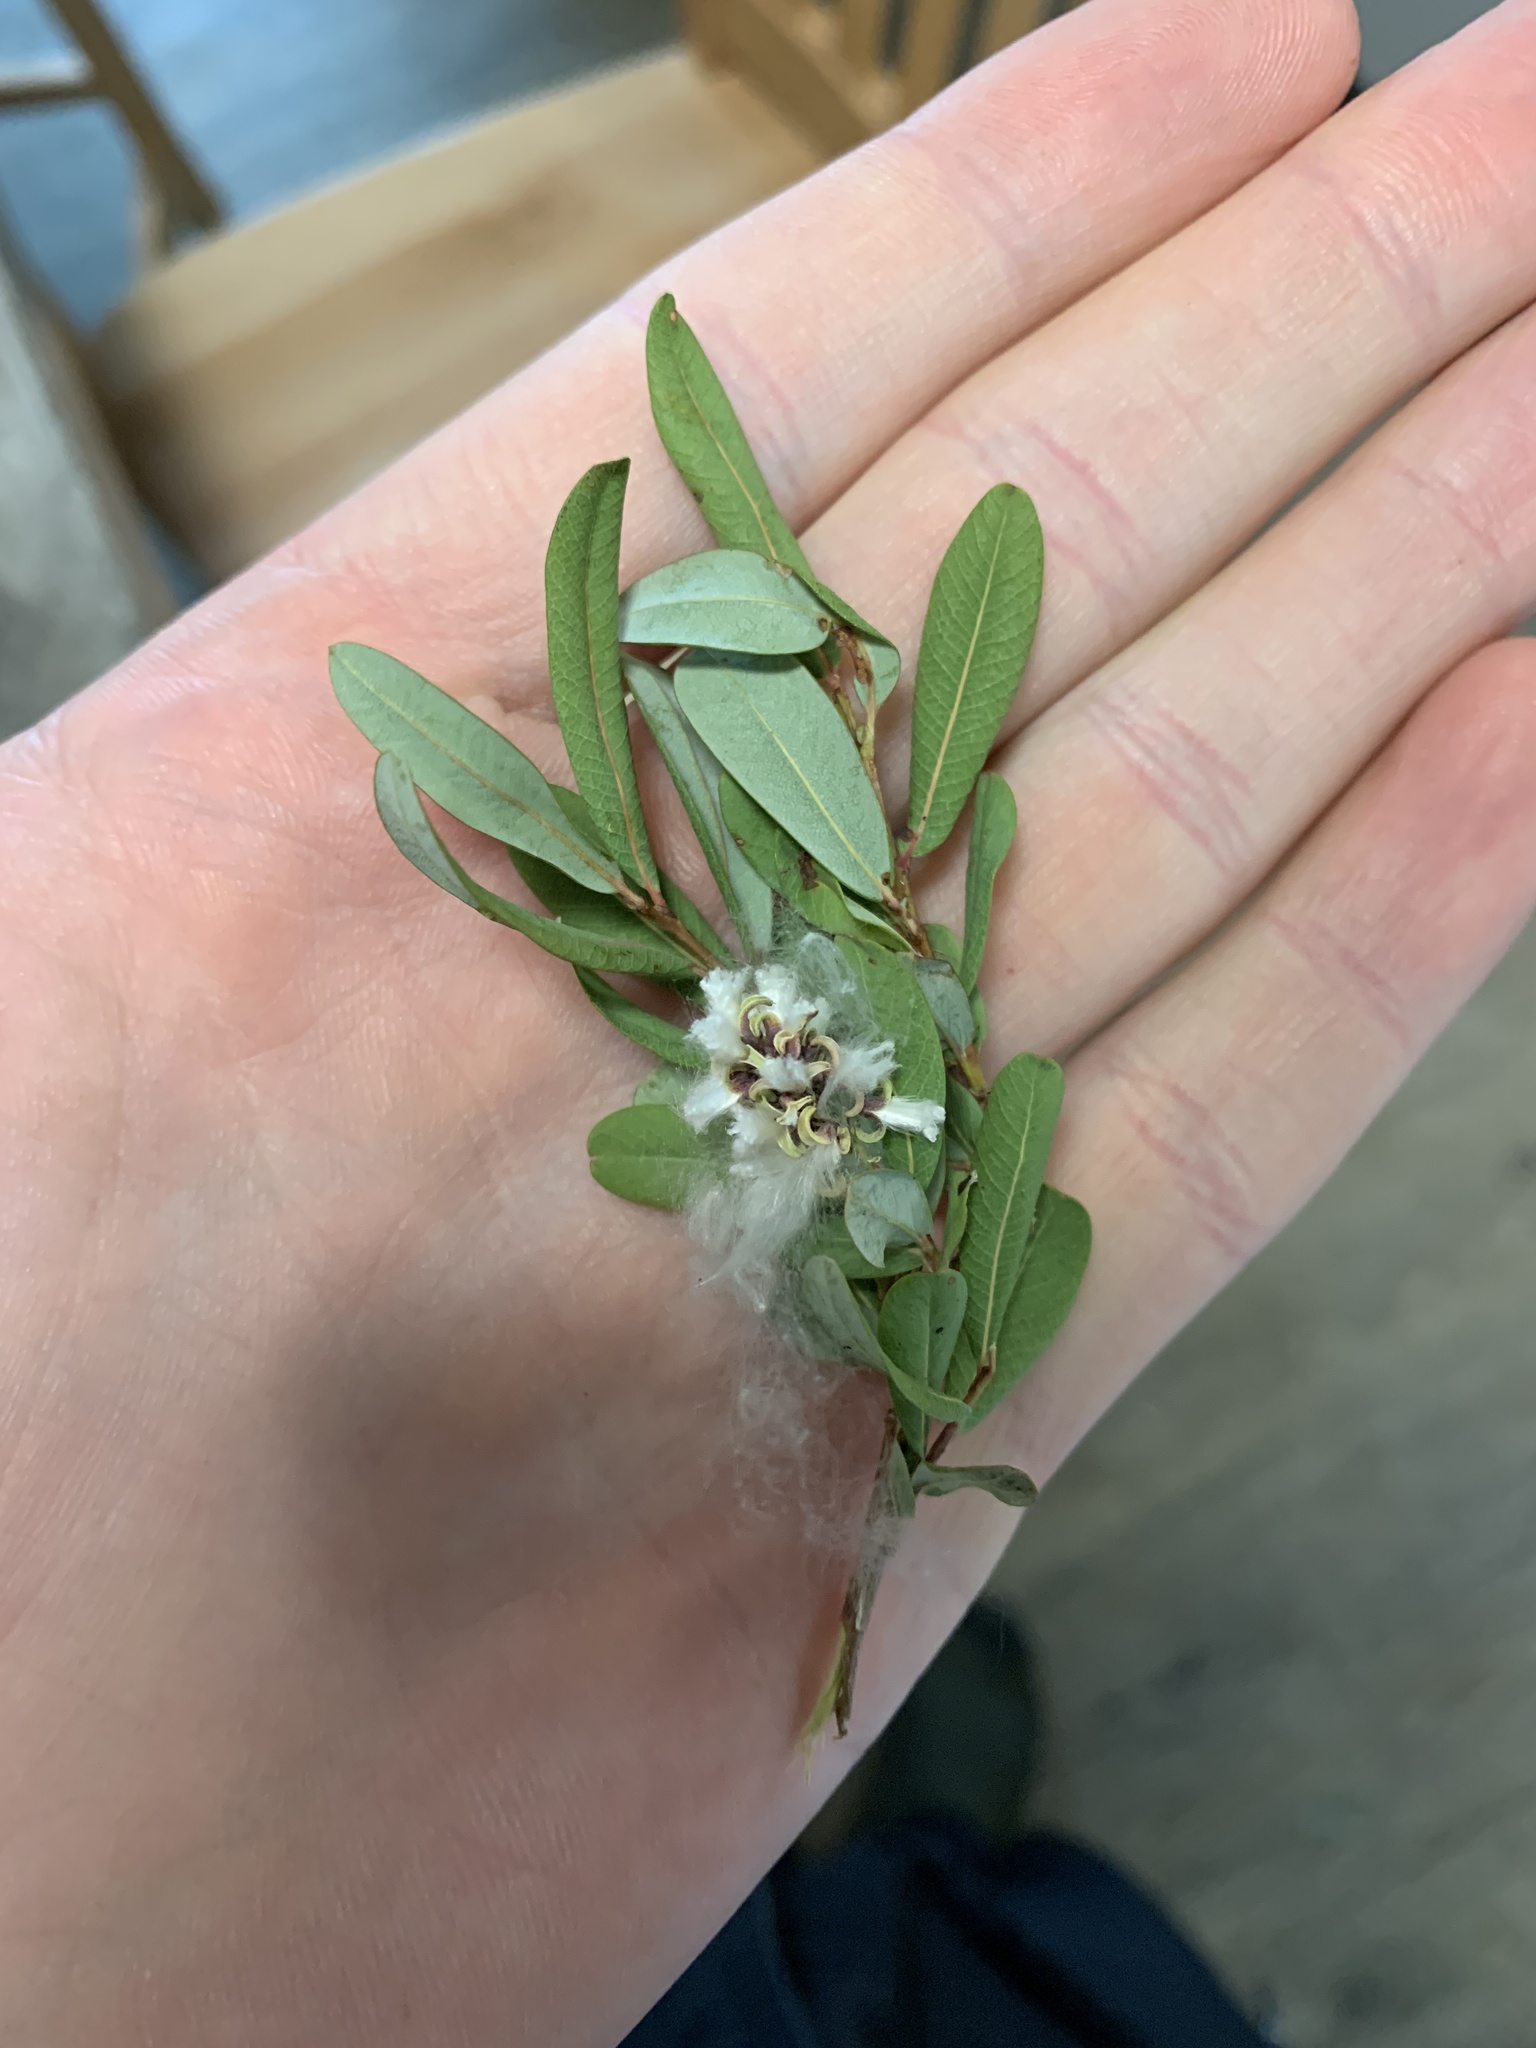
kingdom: Plantae
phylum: Tracheophyta
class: Magnoliopsida
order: Malpighiales
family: Salicaceae
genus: Salix
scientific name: Salix pedicellaris
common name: Bog willow
